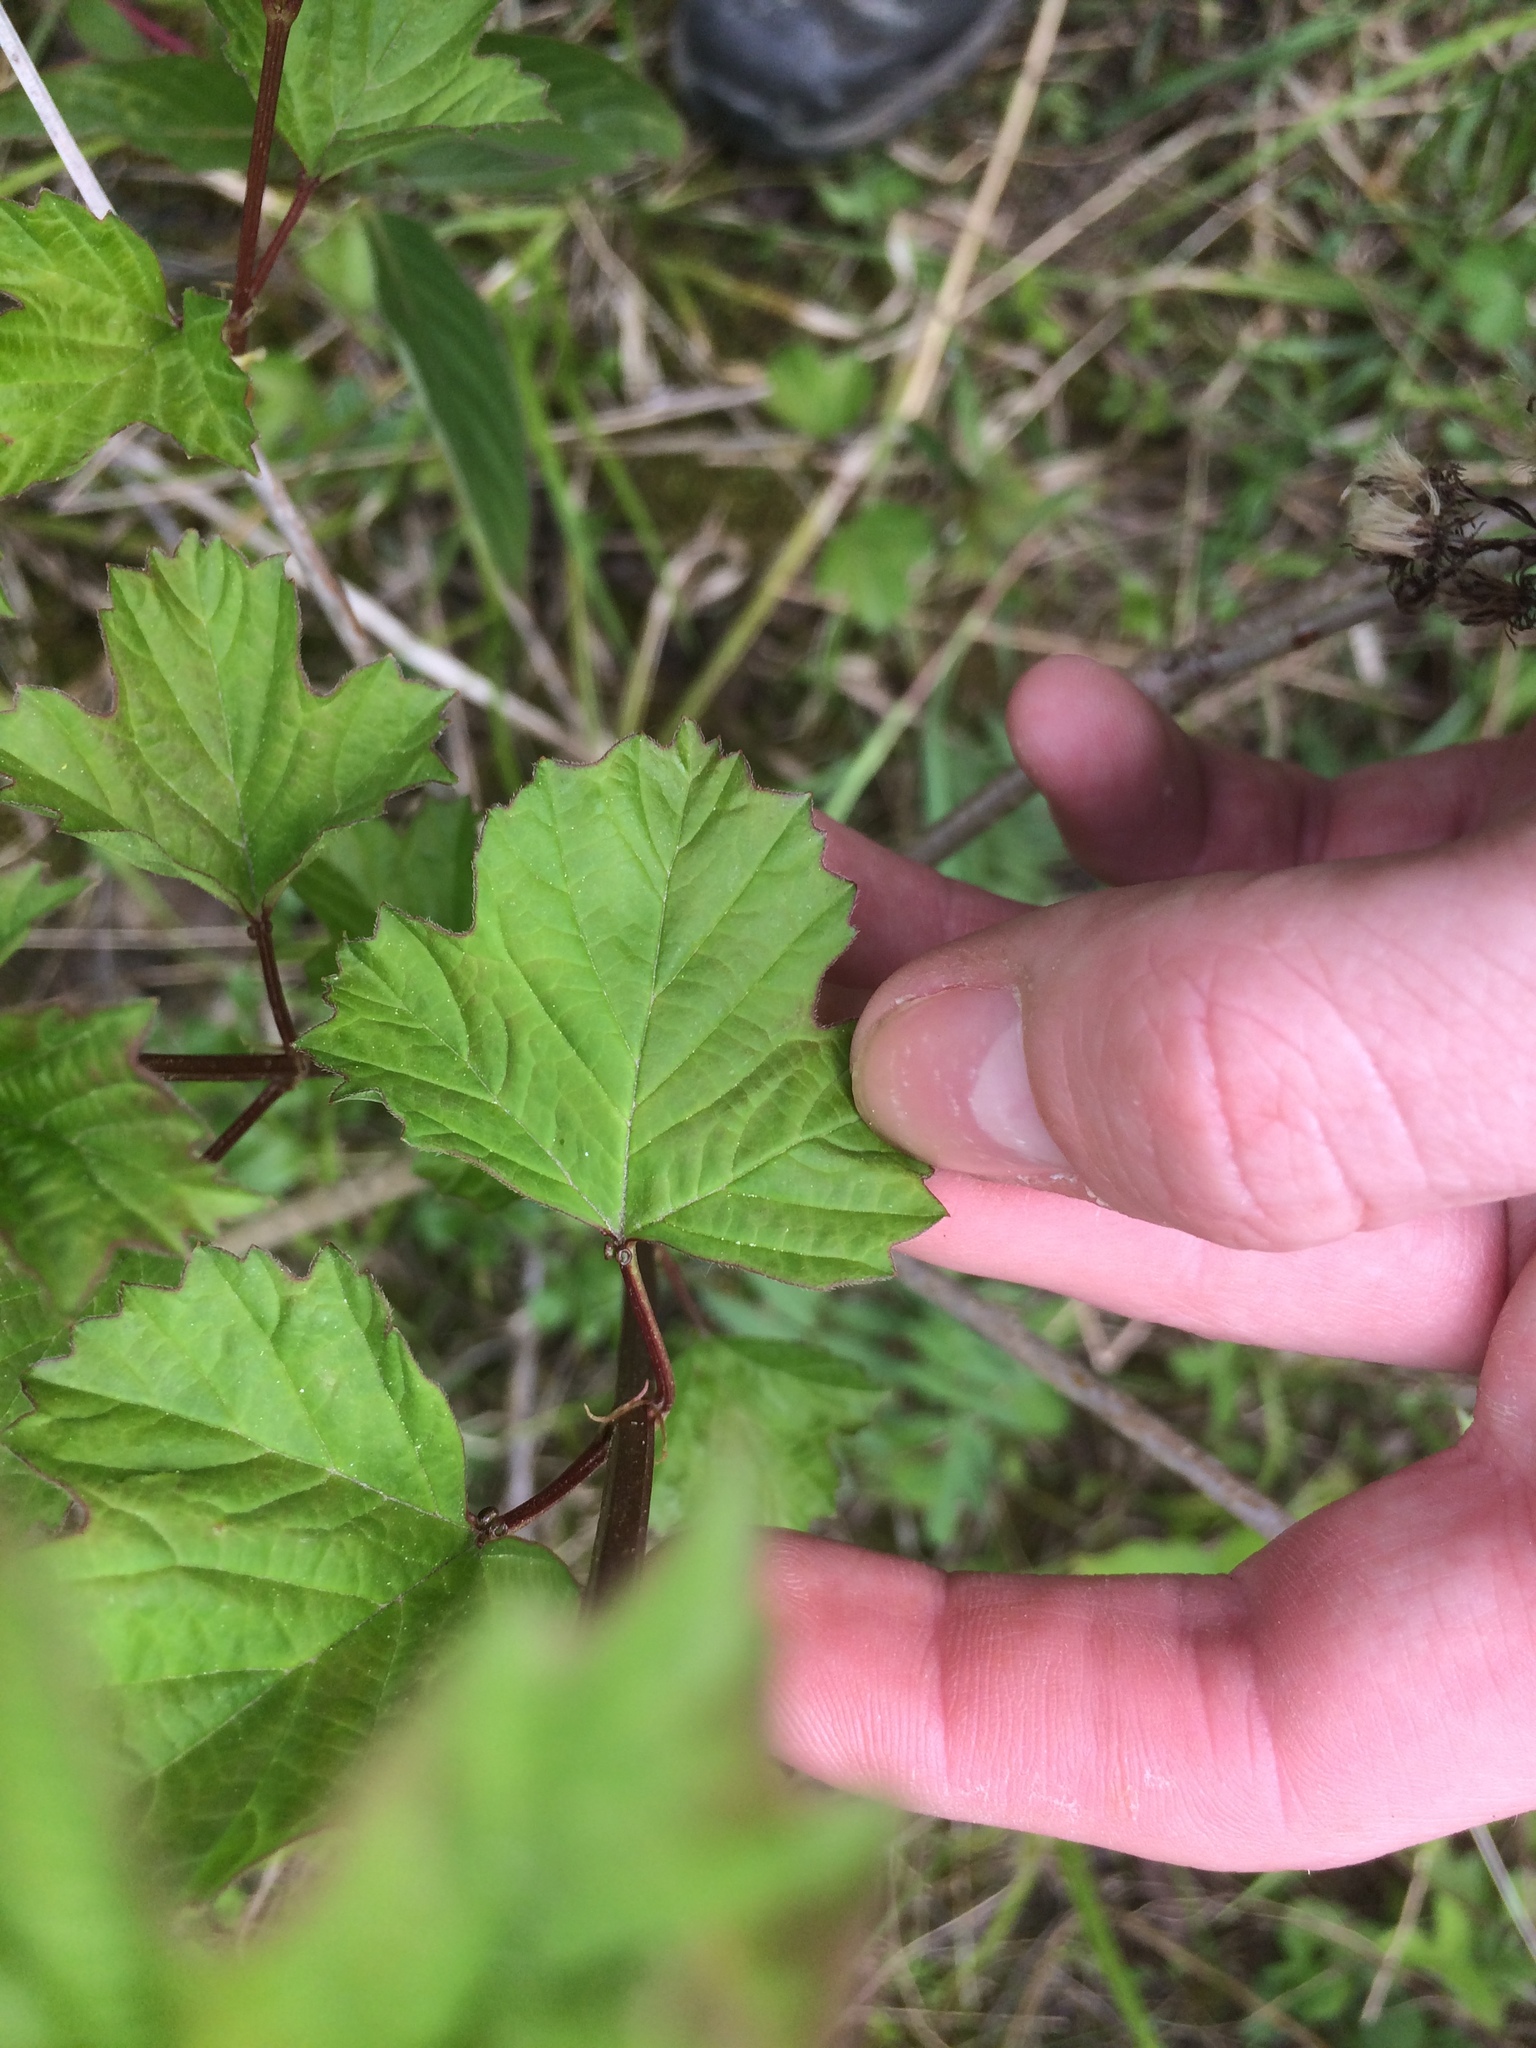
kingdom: Plantae
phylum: Tracheophyta
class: Magnoliopsida
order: Dipsacales
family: Viburnaceae
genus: Viburnum
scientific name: Viburnum opulus
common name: Guelder-rose
